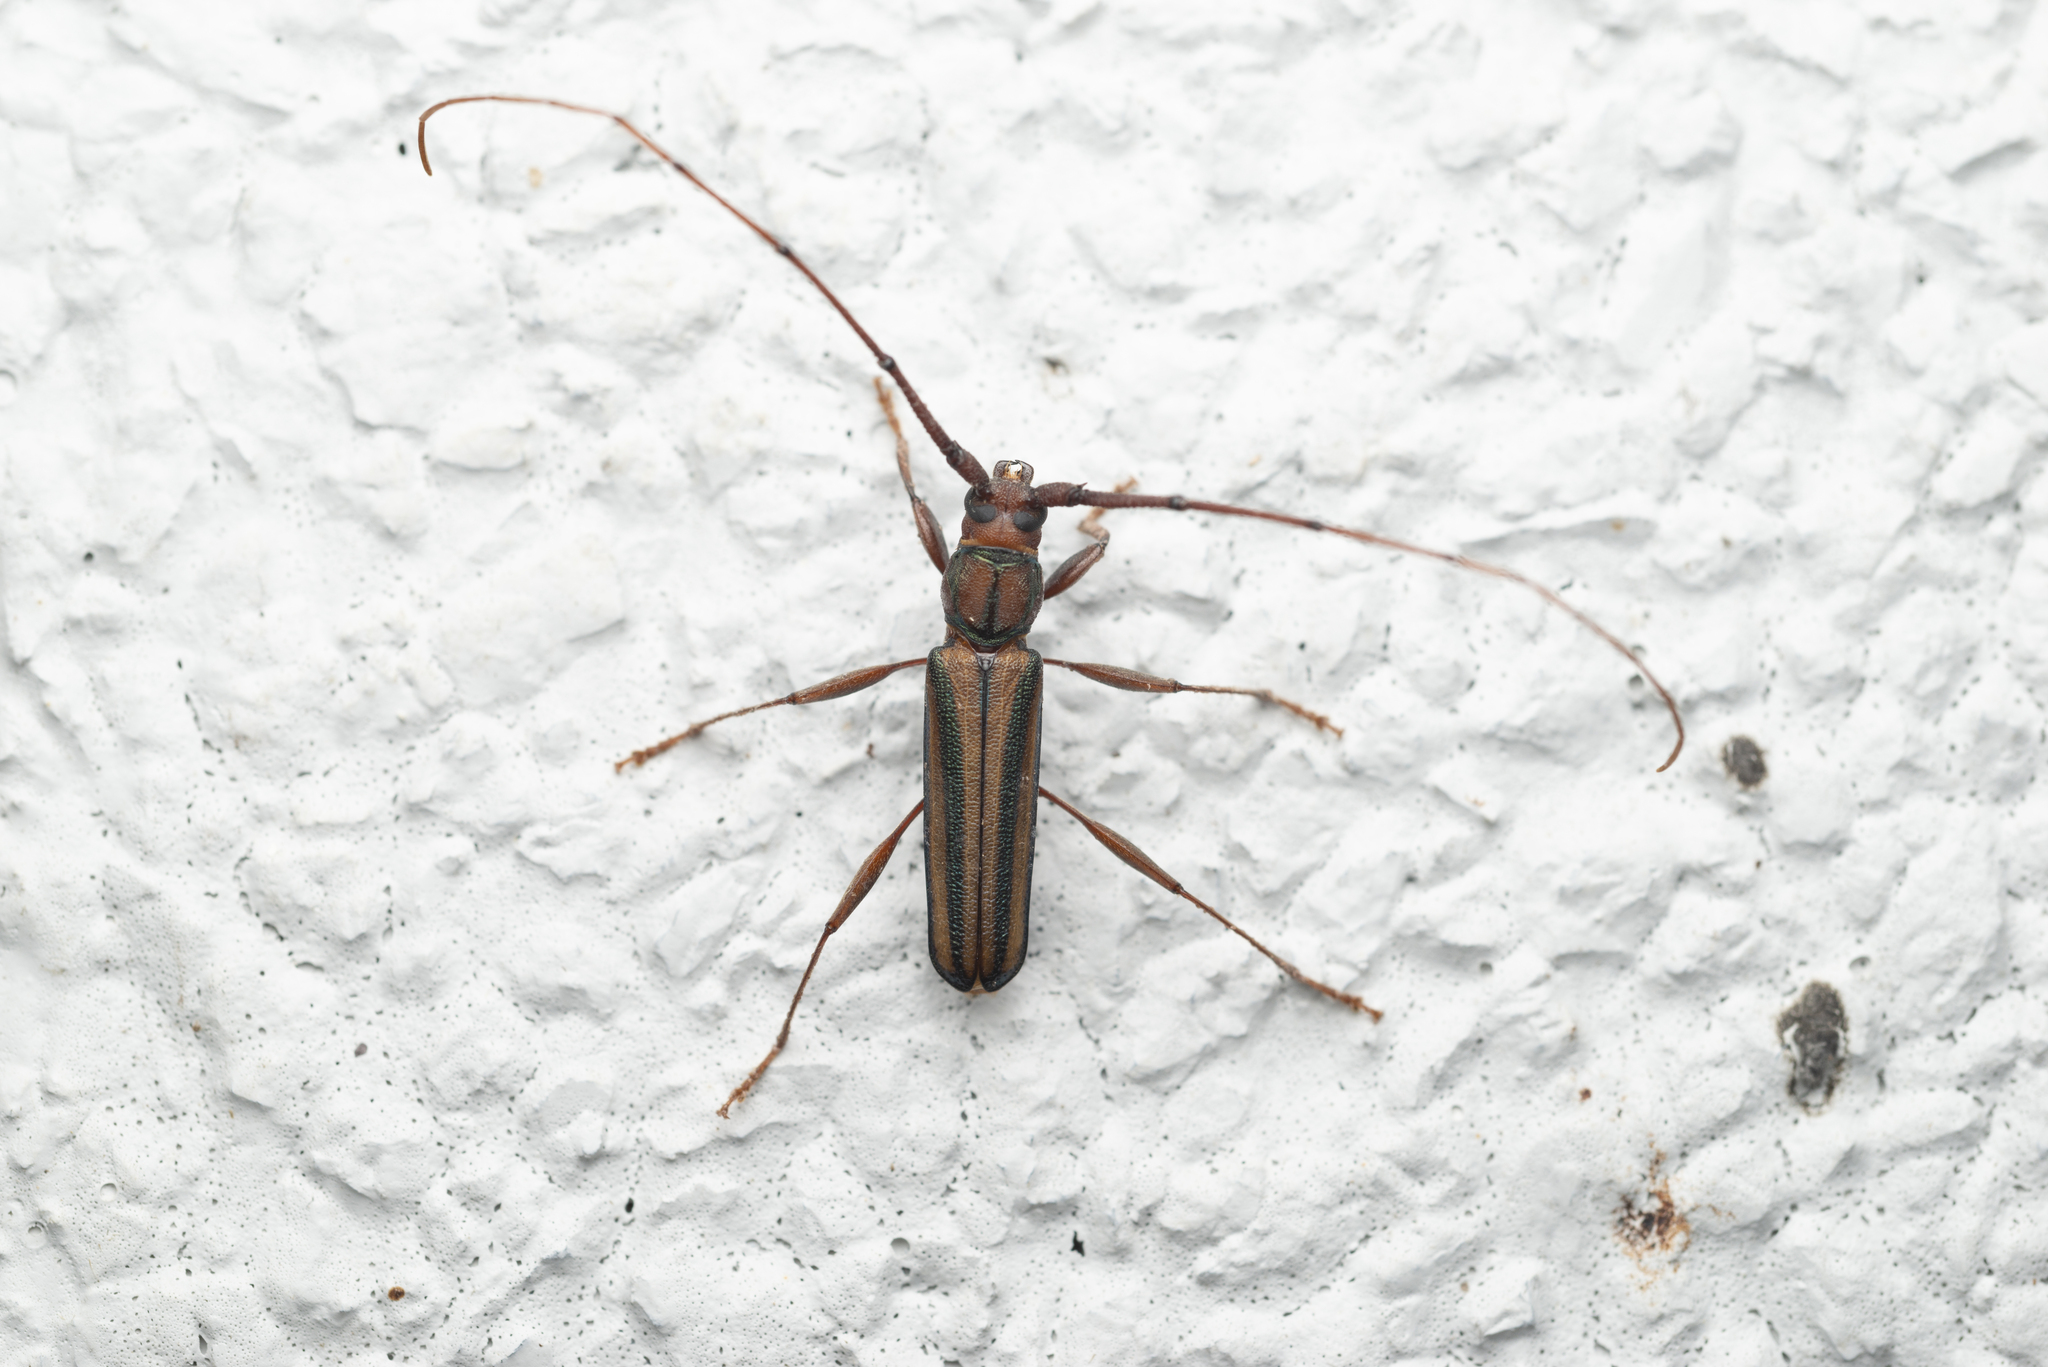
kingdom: Animalia
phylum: Arthropoda
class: Insecta
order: Coleoptera
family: Cerambycidae
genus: Xystrocera
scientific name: Xystrocera globosa
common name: Peach-tree longhorn
